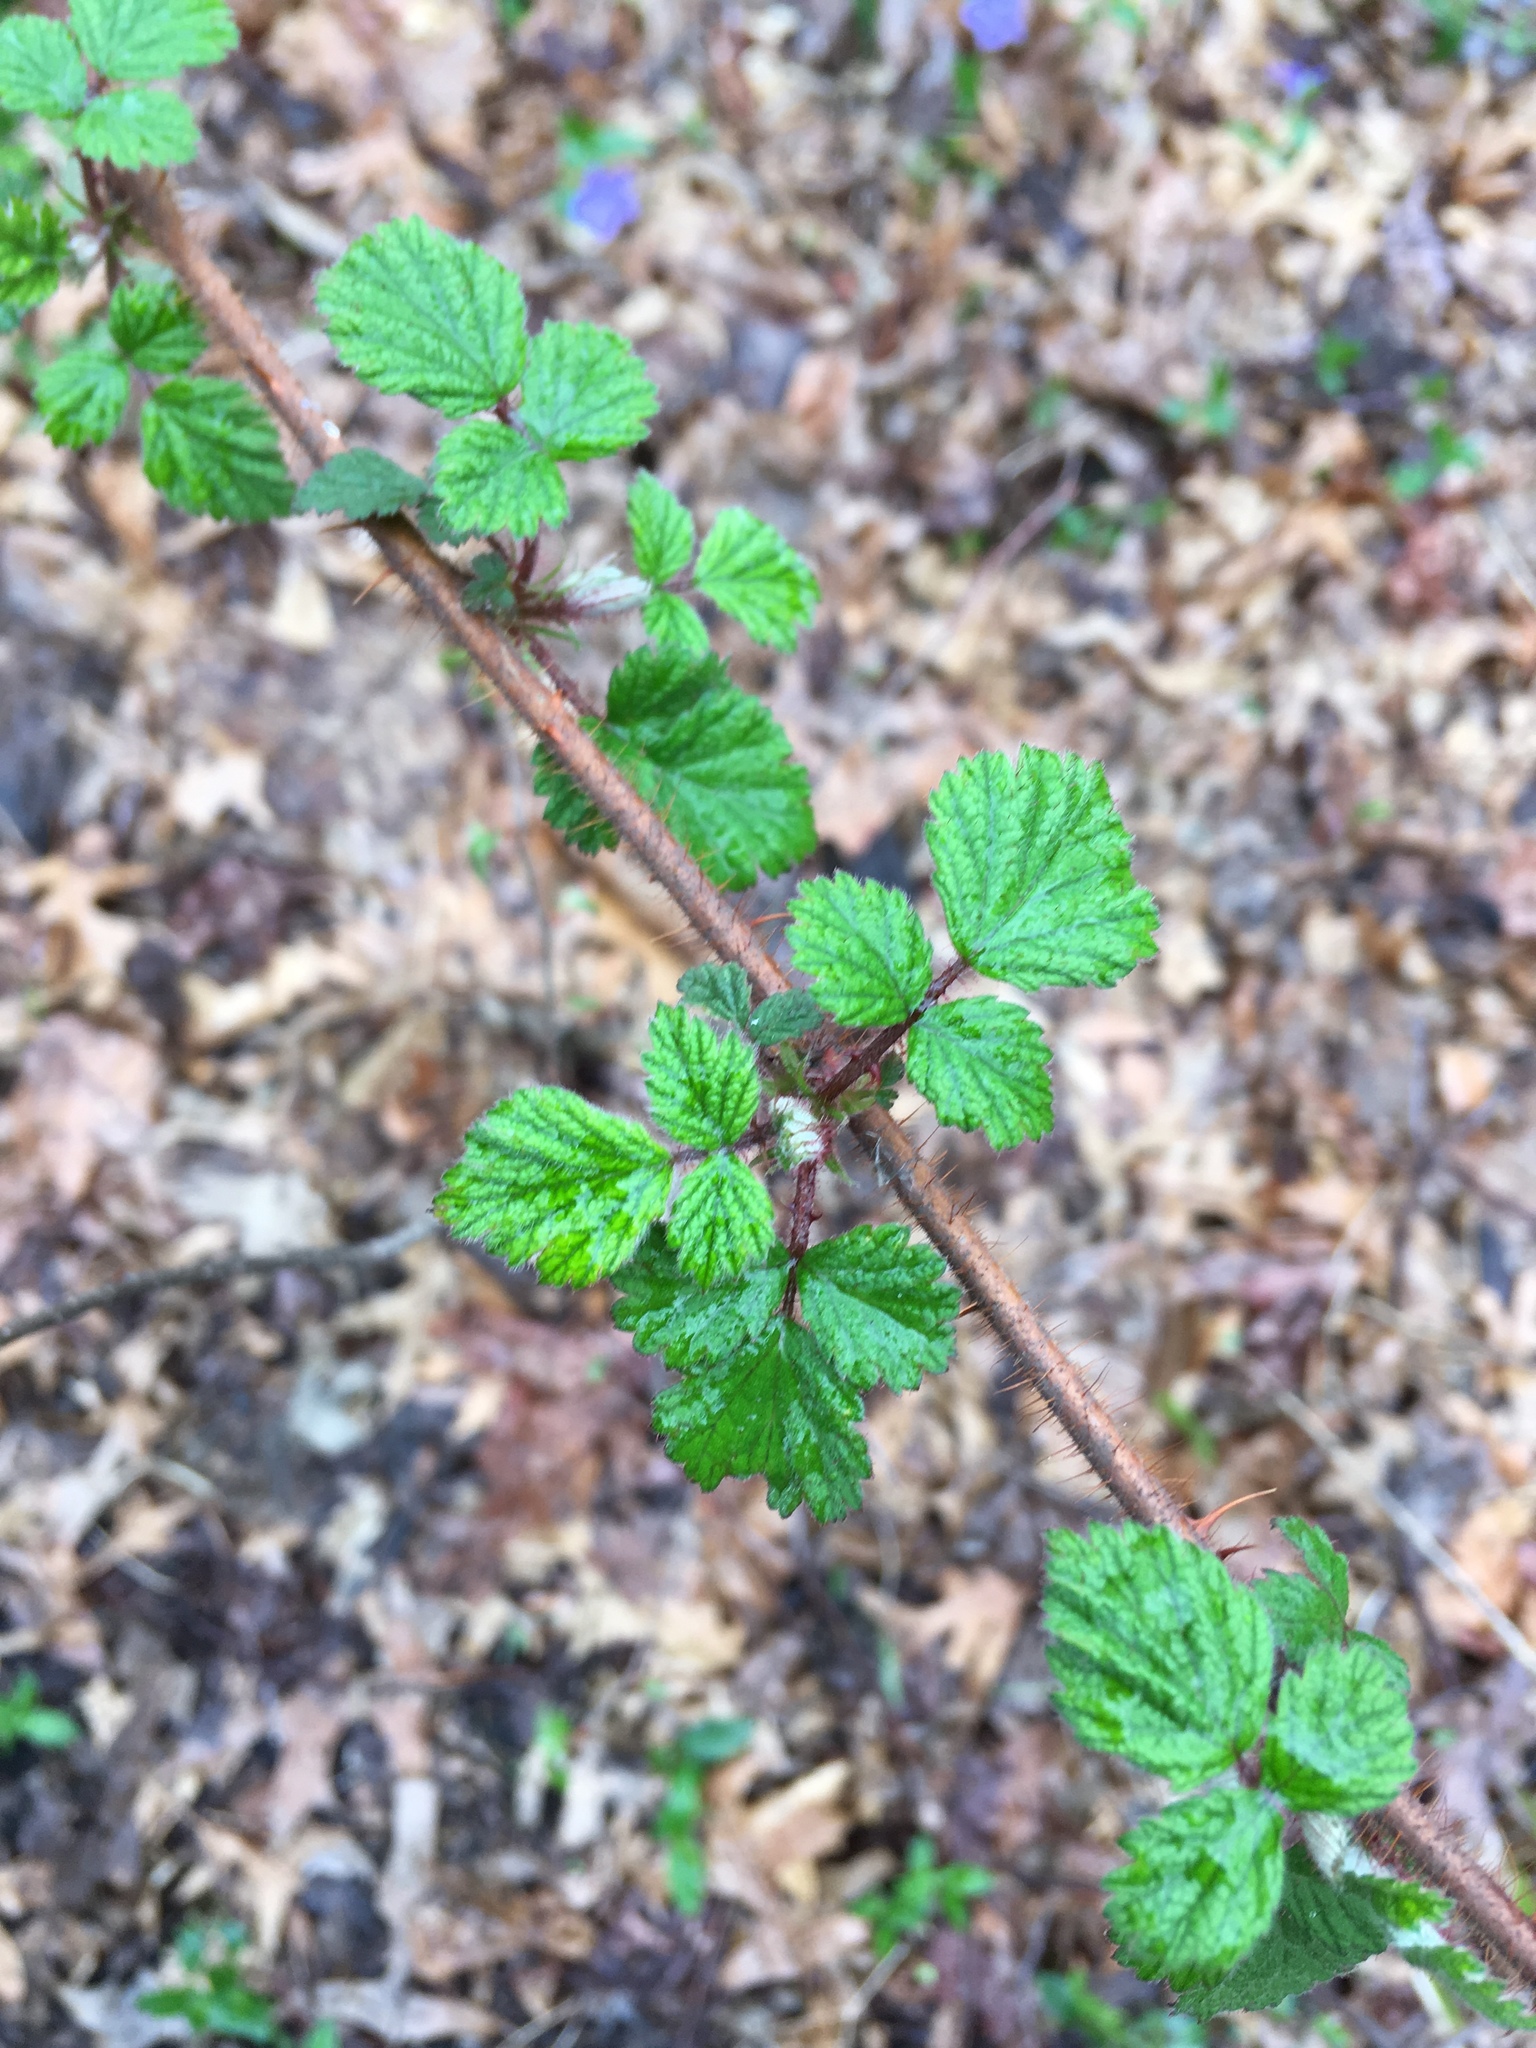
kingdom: Plantae
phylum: Tracheophyta
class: Magnoliopsida
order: Rosales
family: Rosaceae
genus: Rubus
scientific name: Rubus phoenicolasius
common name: Japanese wineberry
